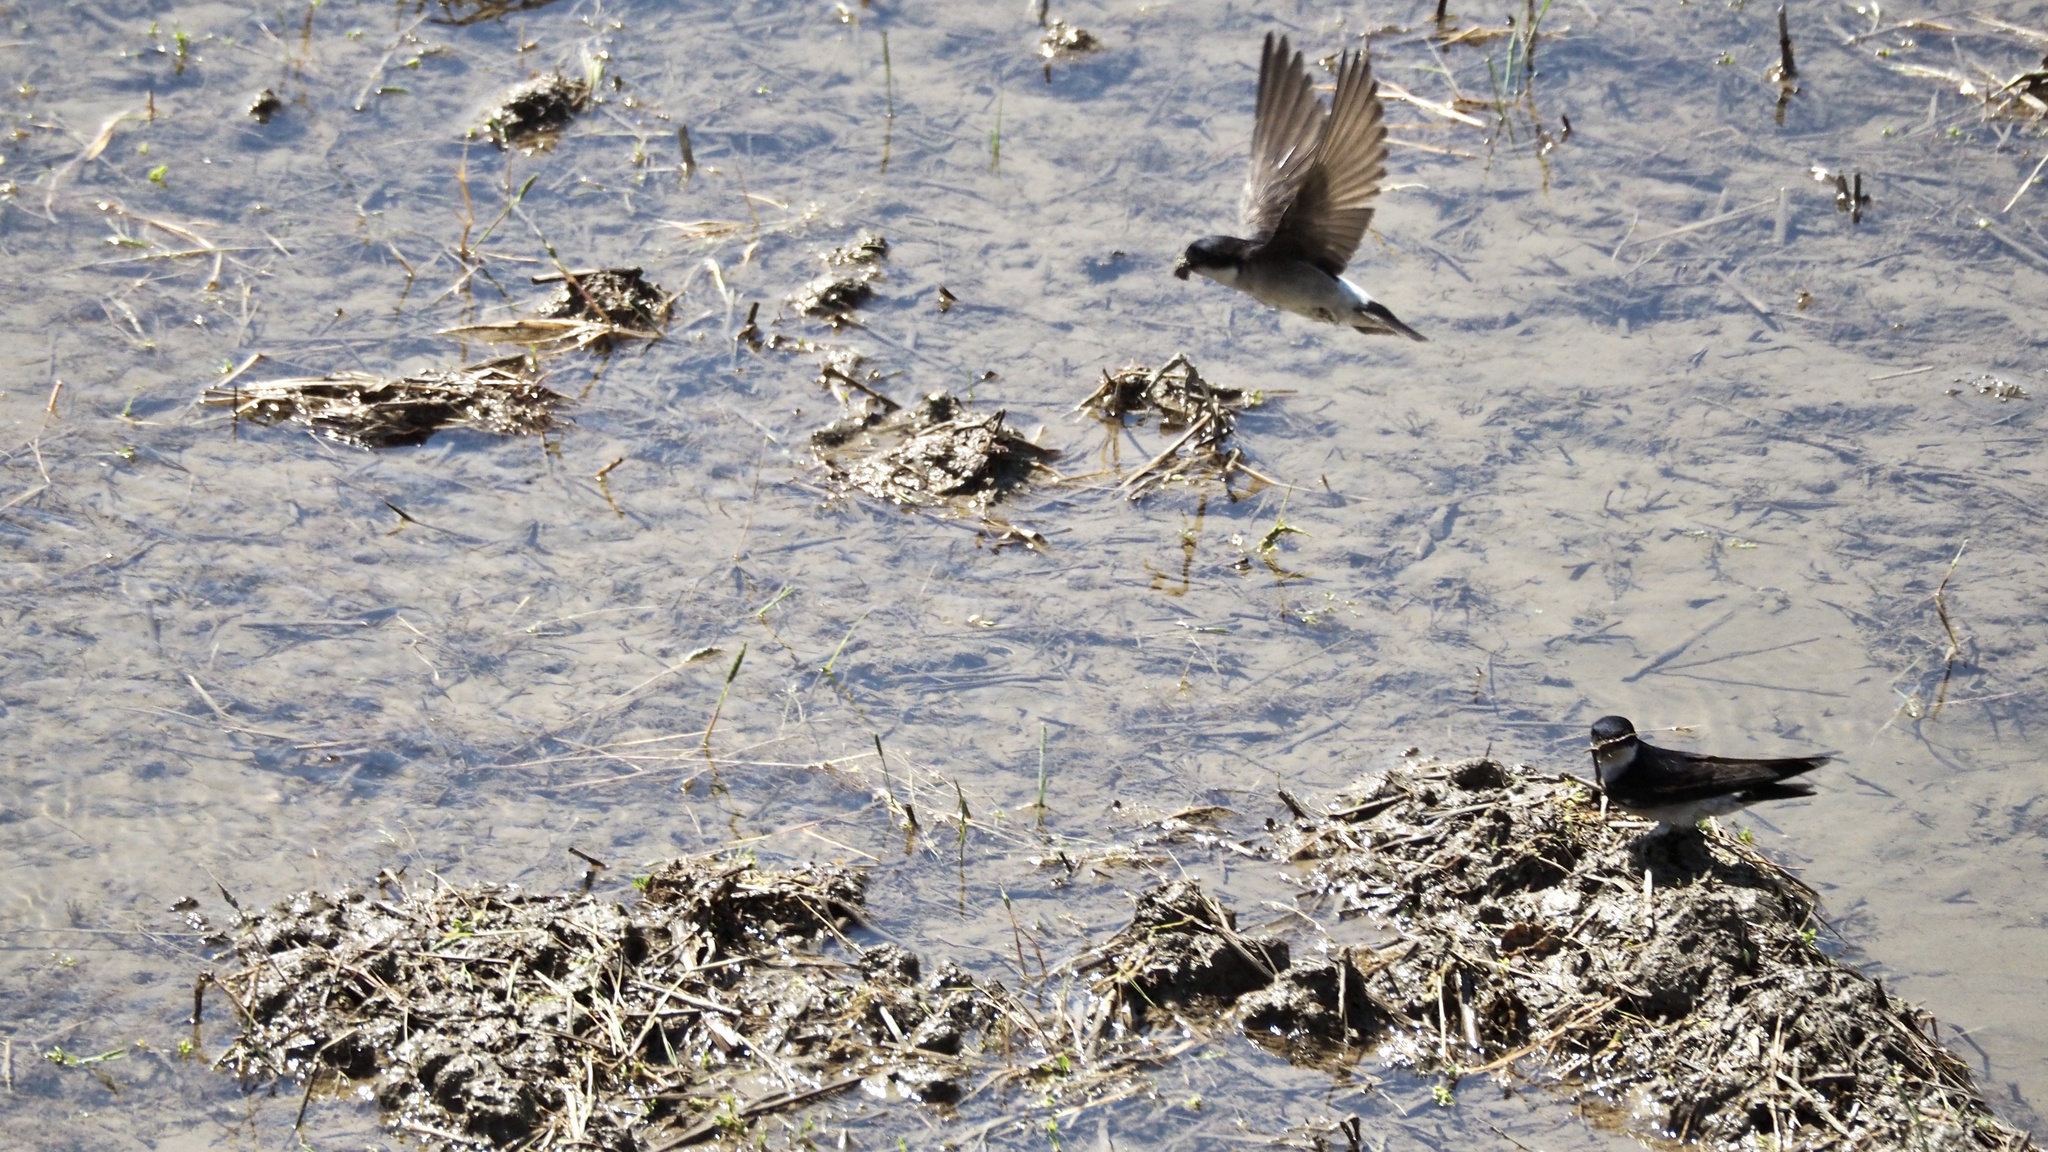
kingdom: Animalia
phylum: Chordata
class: Aves
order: Passeriformes
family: Hirundinidae
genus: Delichon
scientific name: Delichon dasypus
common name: Asian house martin
